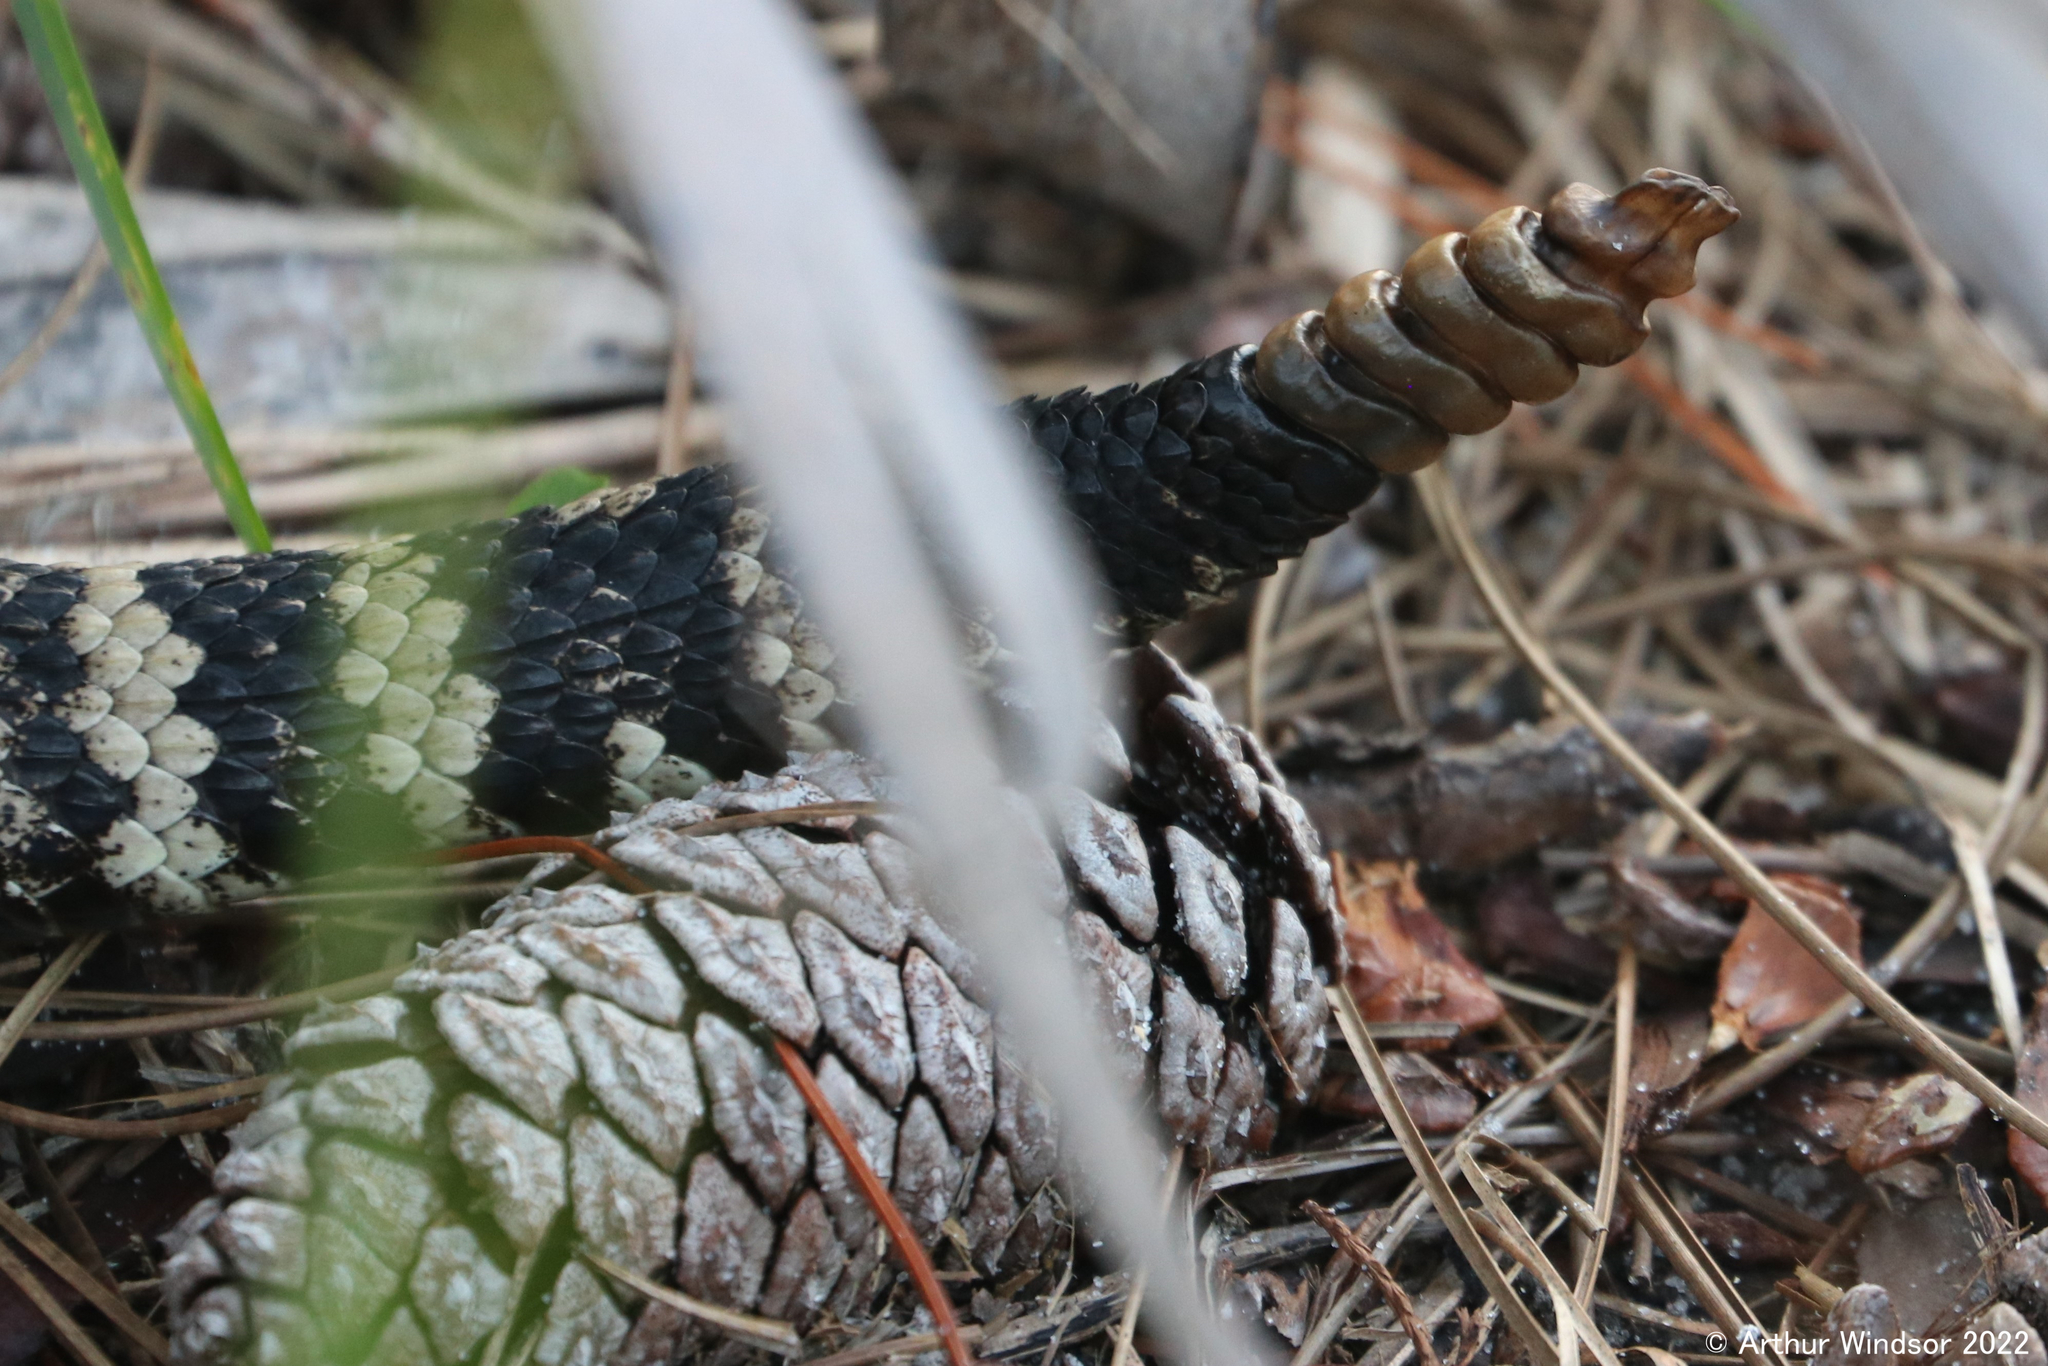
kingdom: Animalia
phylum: Chordata
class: Squamata
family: Viperidae
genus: Crotalus
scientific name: Crotalus adamanteus
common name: Eastern diamondback rattlesnake
